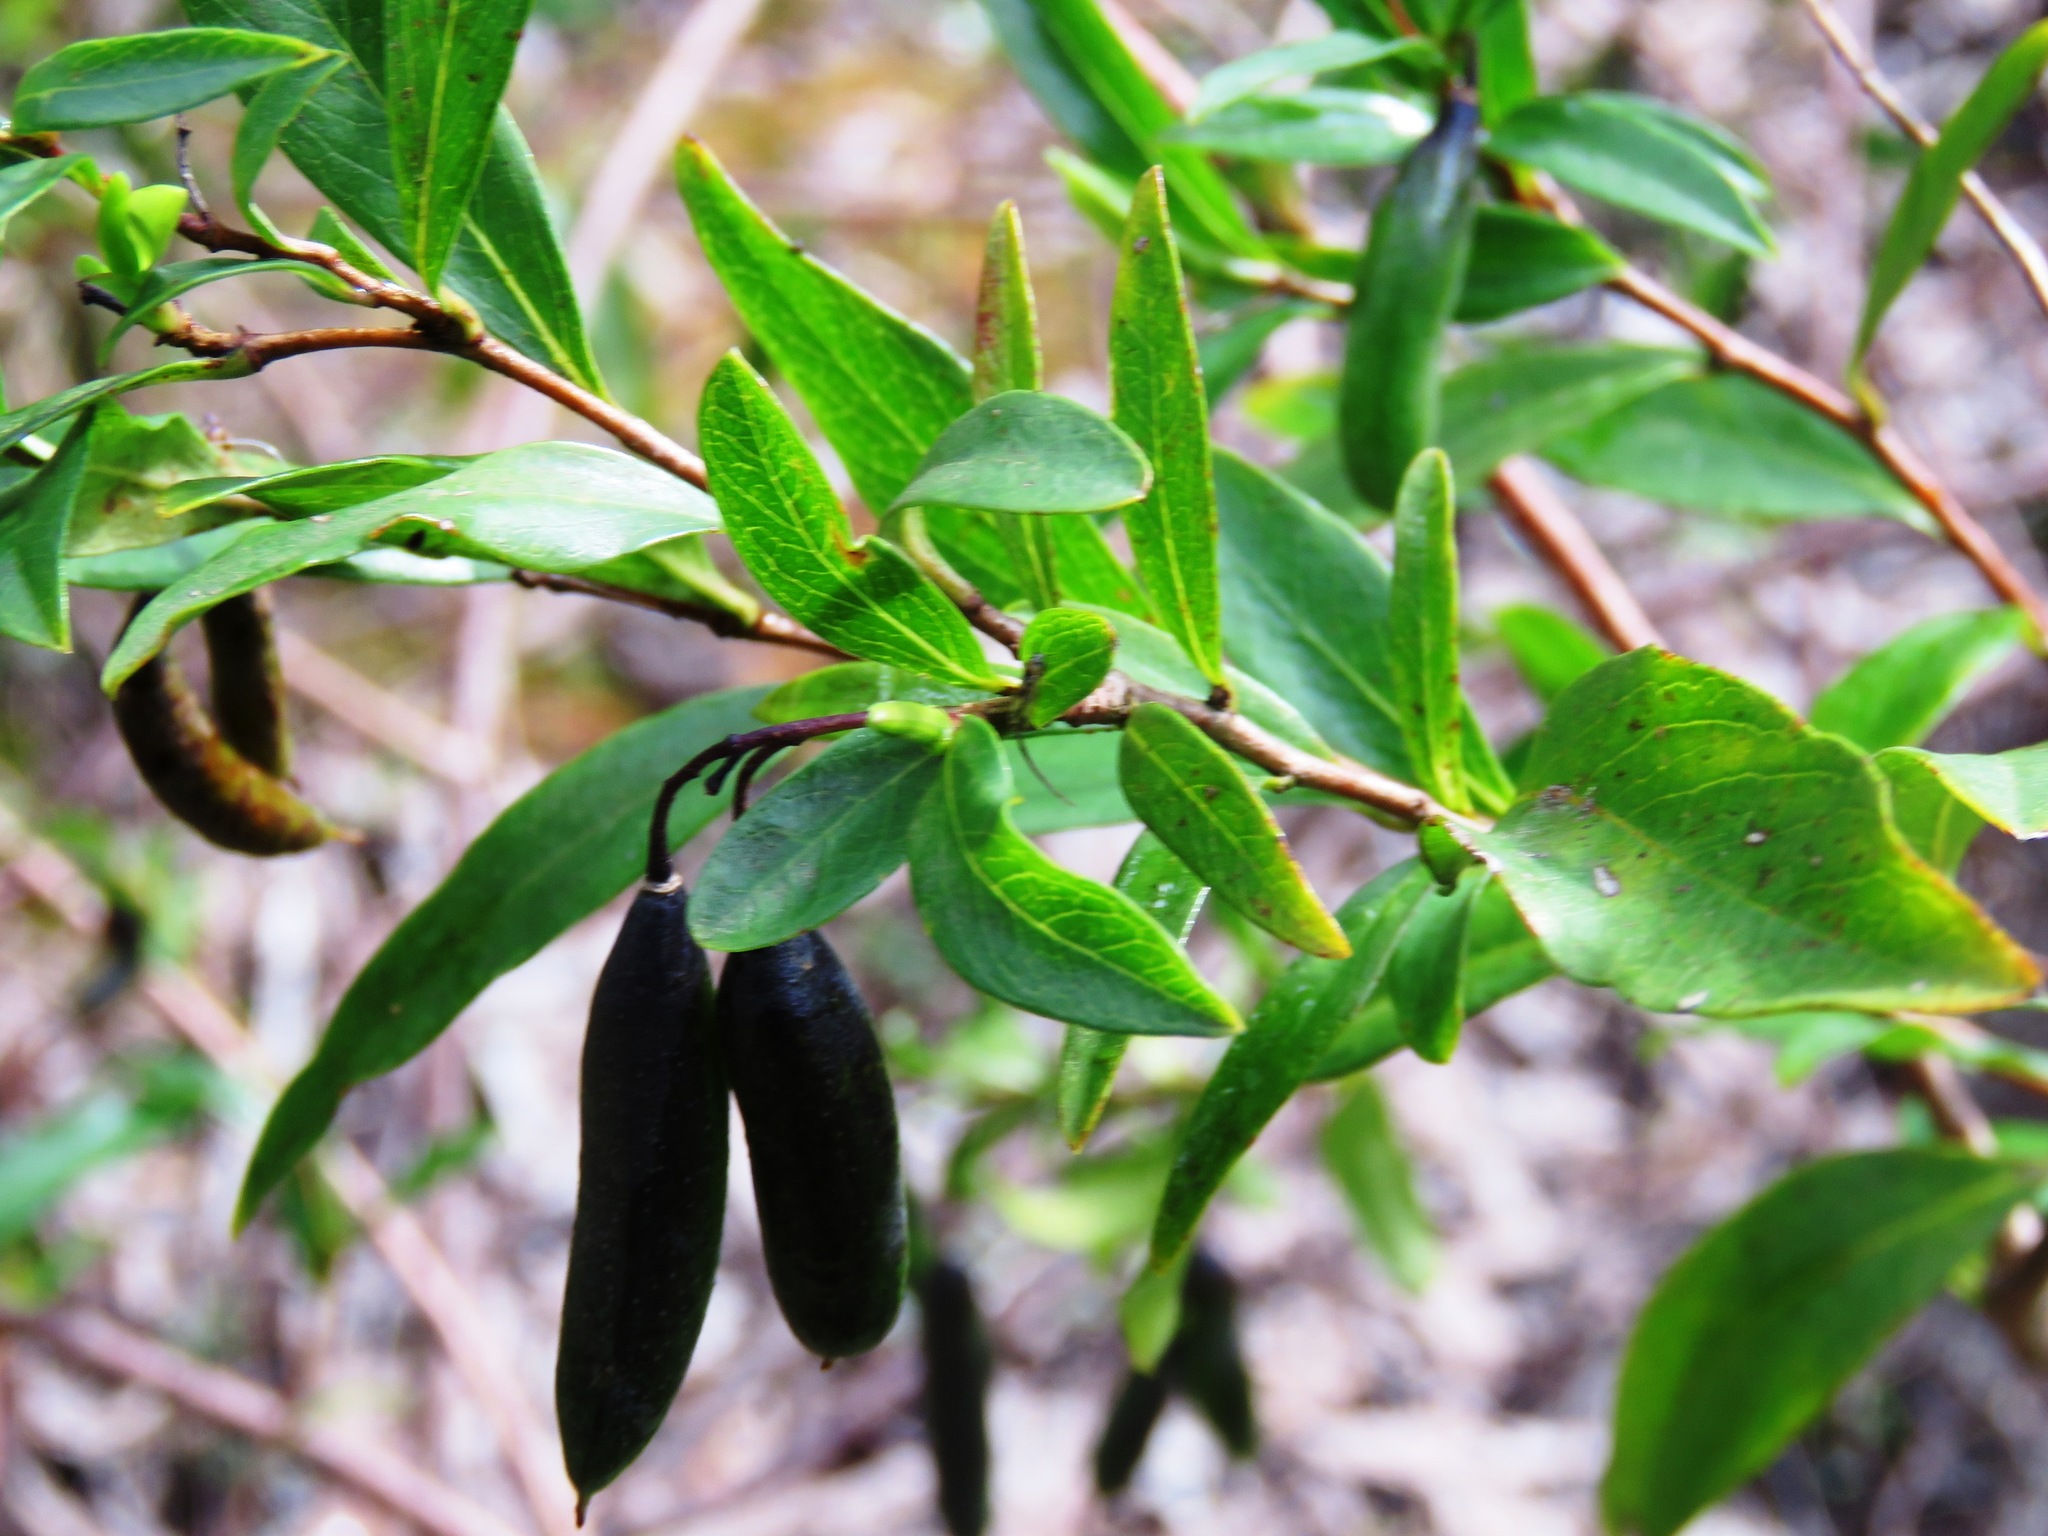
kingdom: Plantae
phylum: Tracheophyta
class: Magnoliopsida
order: Apiales
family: Pittosporaceae
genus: Billardiera
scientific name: Billardiera fusiformis
